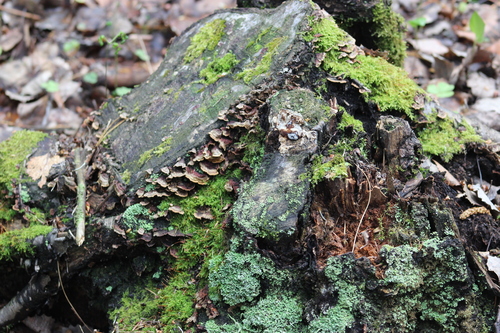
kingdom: Fungi
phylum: Basidiomycota
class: Agaricomycetes
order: Hymenochaetales
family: Hymenochaetaceae
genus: Hydnoporia
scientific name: Hydnoporia tabacina
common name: Willow glue
